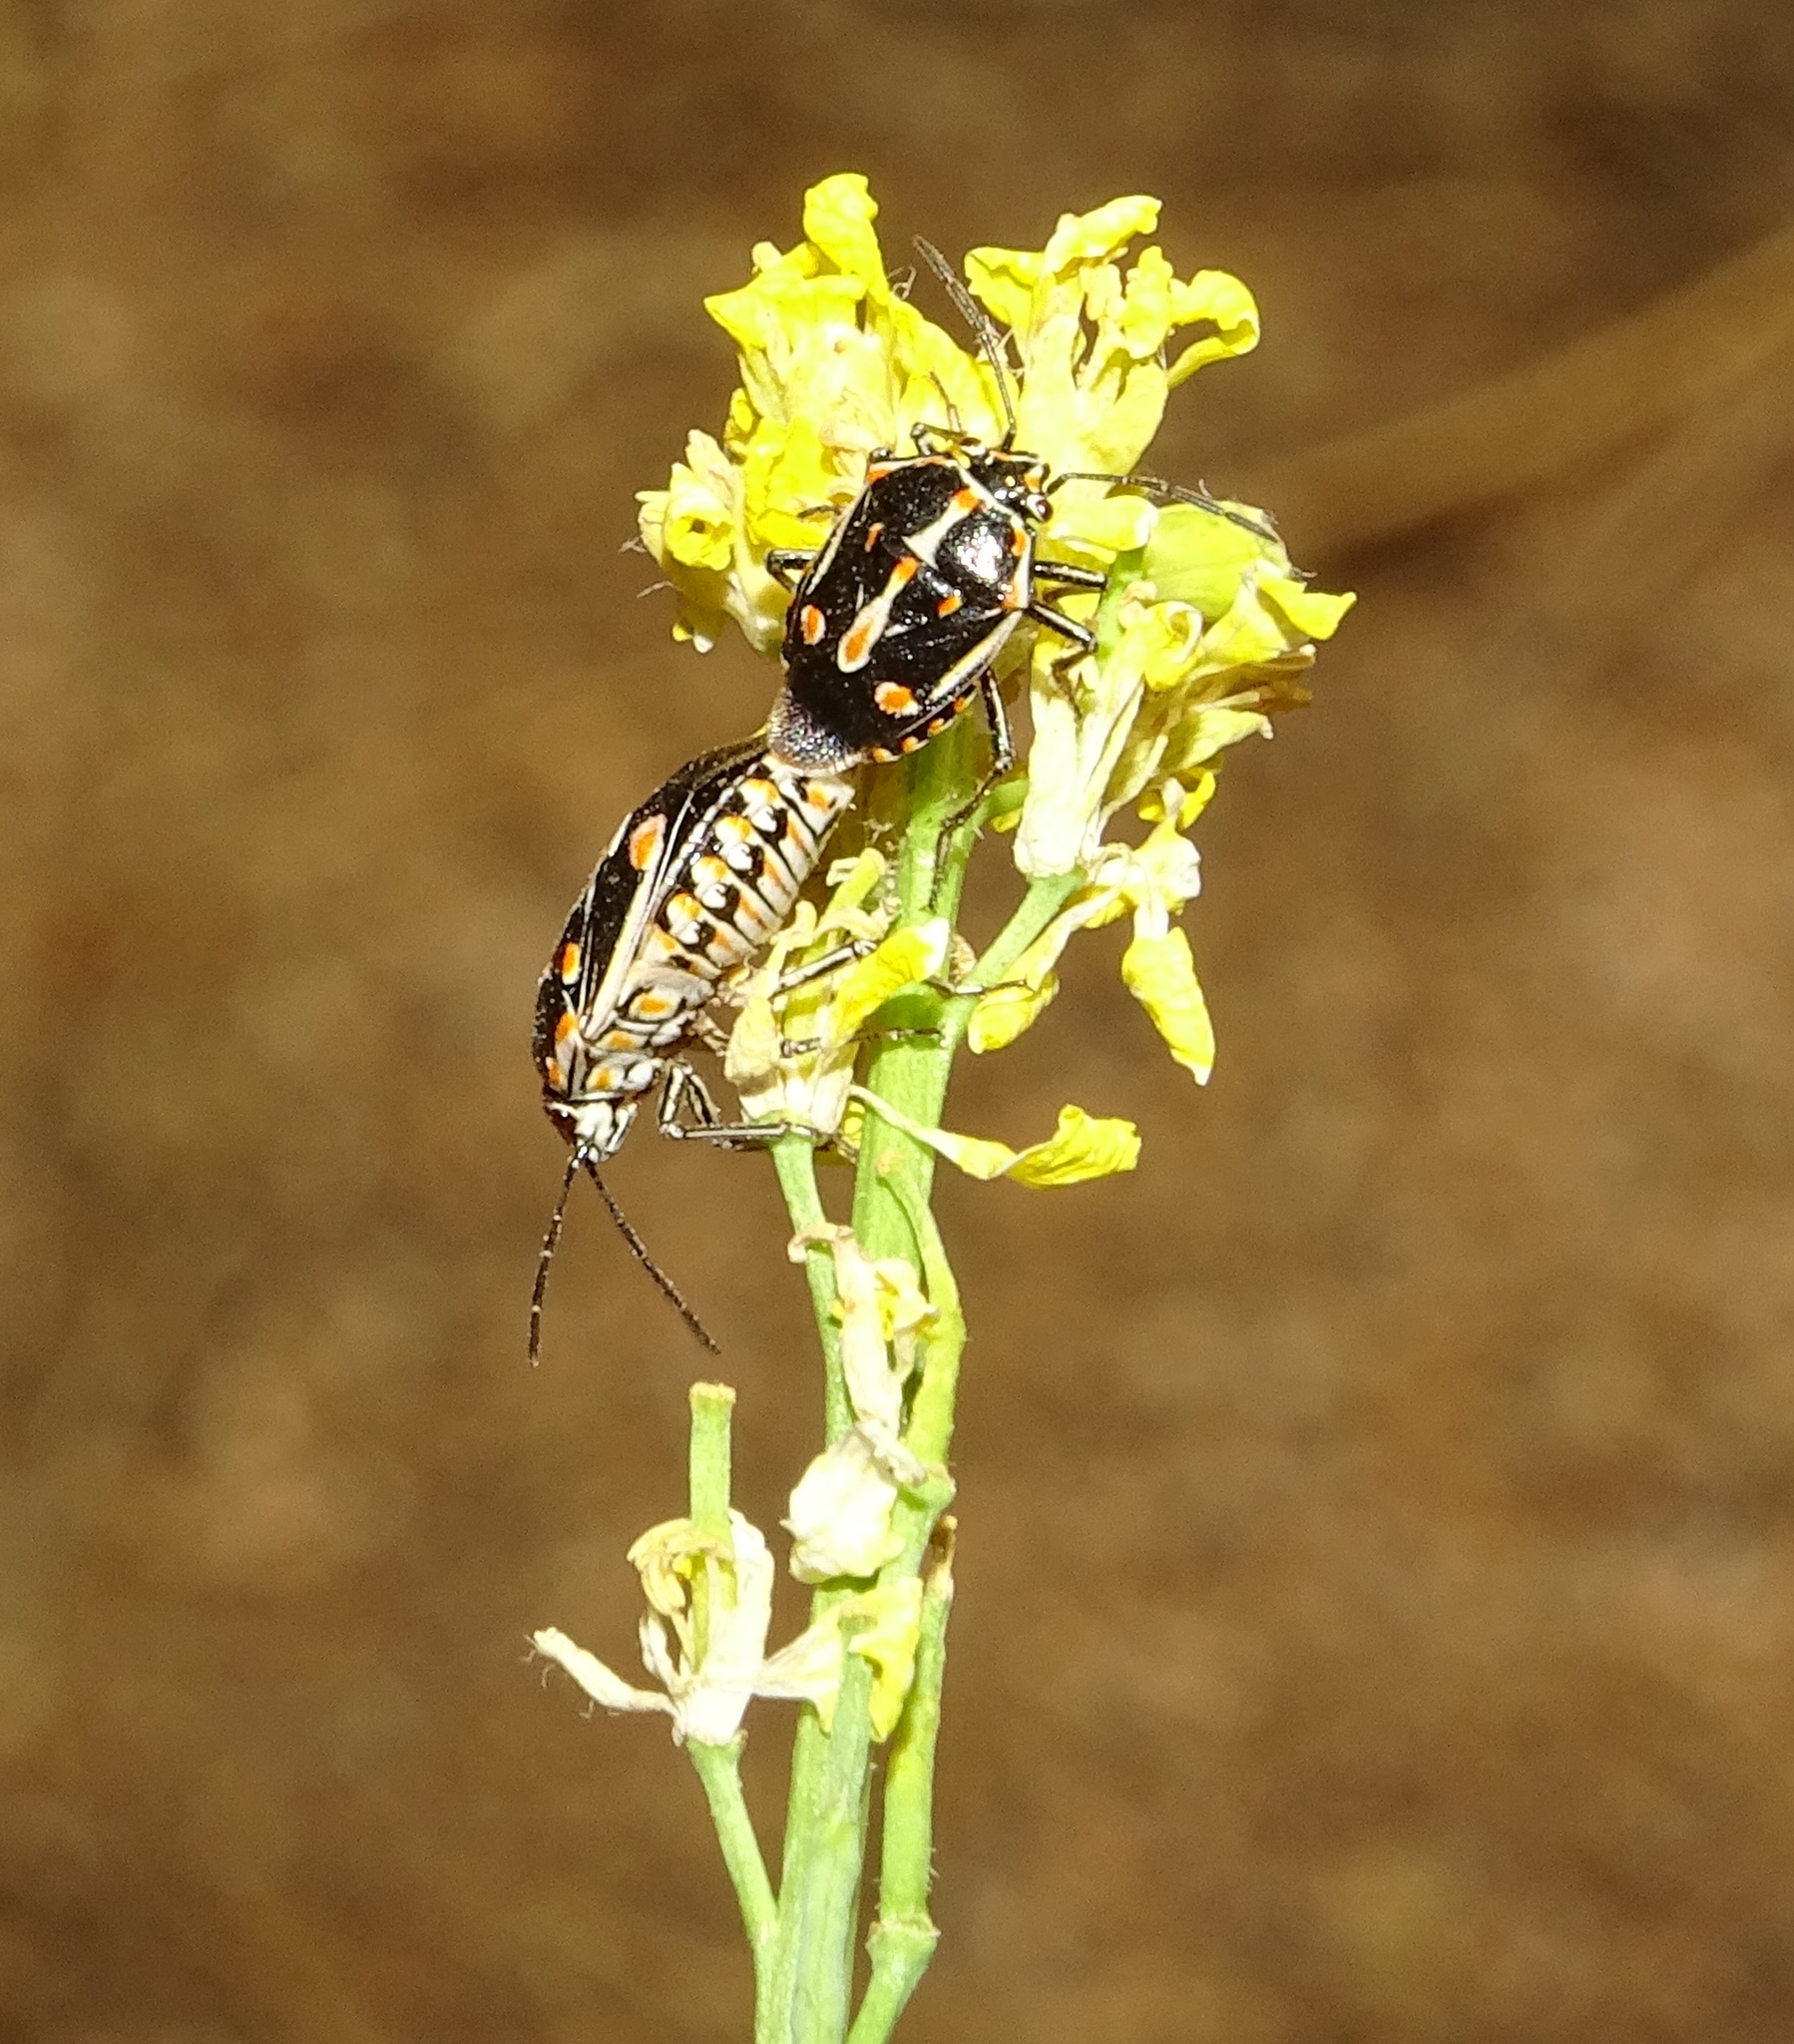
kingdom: Animalia
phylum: Arthropoda
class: Insecta
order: Hemiptera
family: Pentatomidae
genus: Bagrada
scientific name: Bagrada hilaris
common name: Bagrada bug
